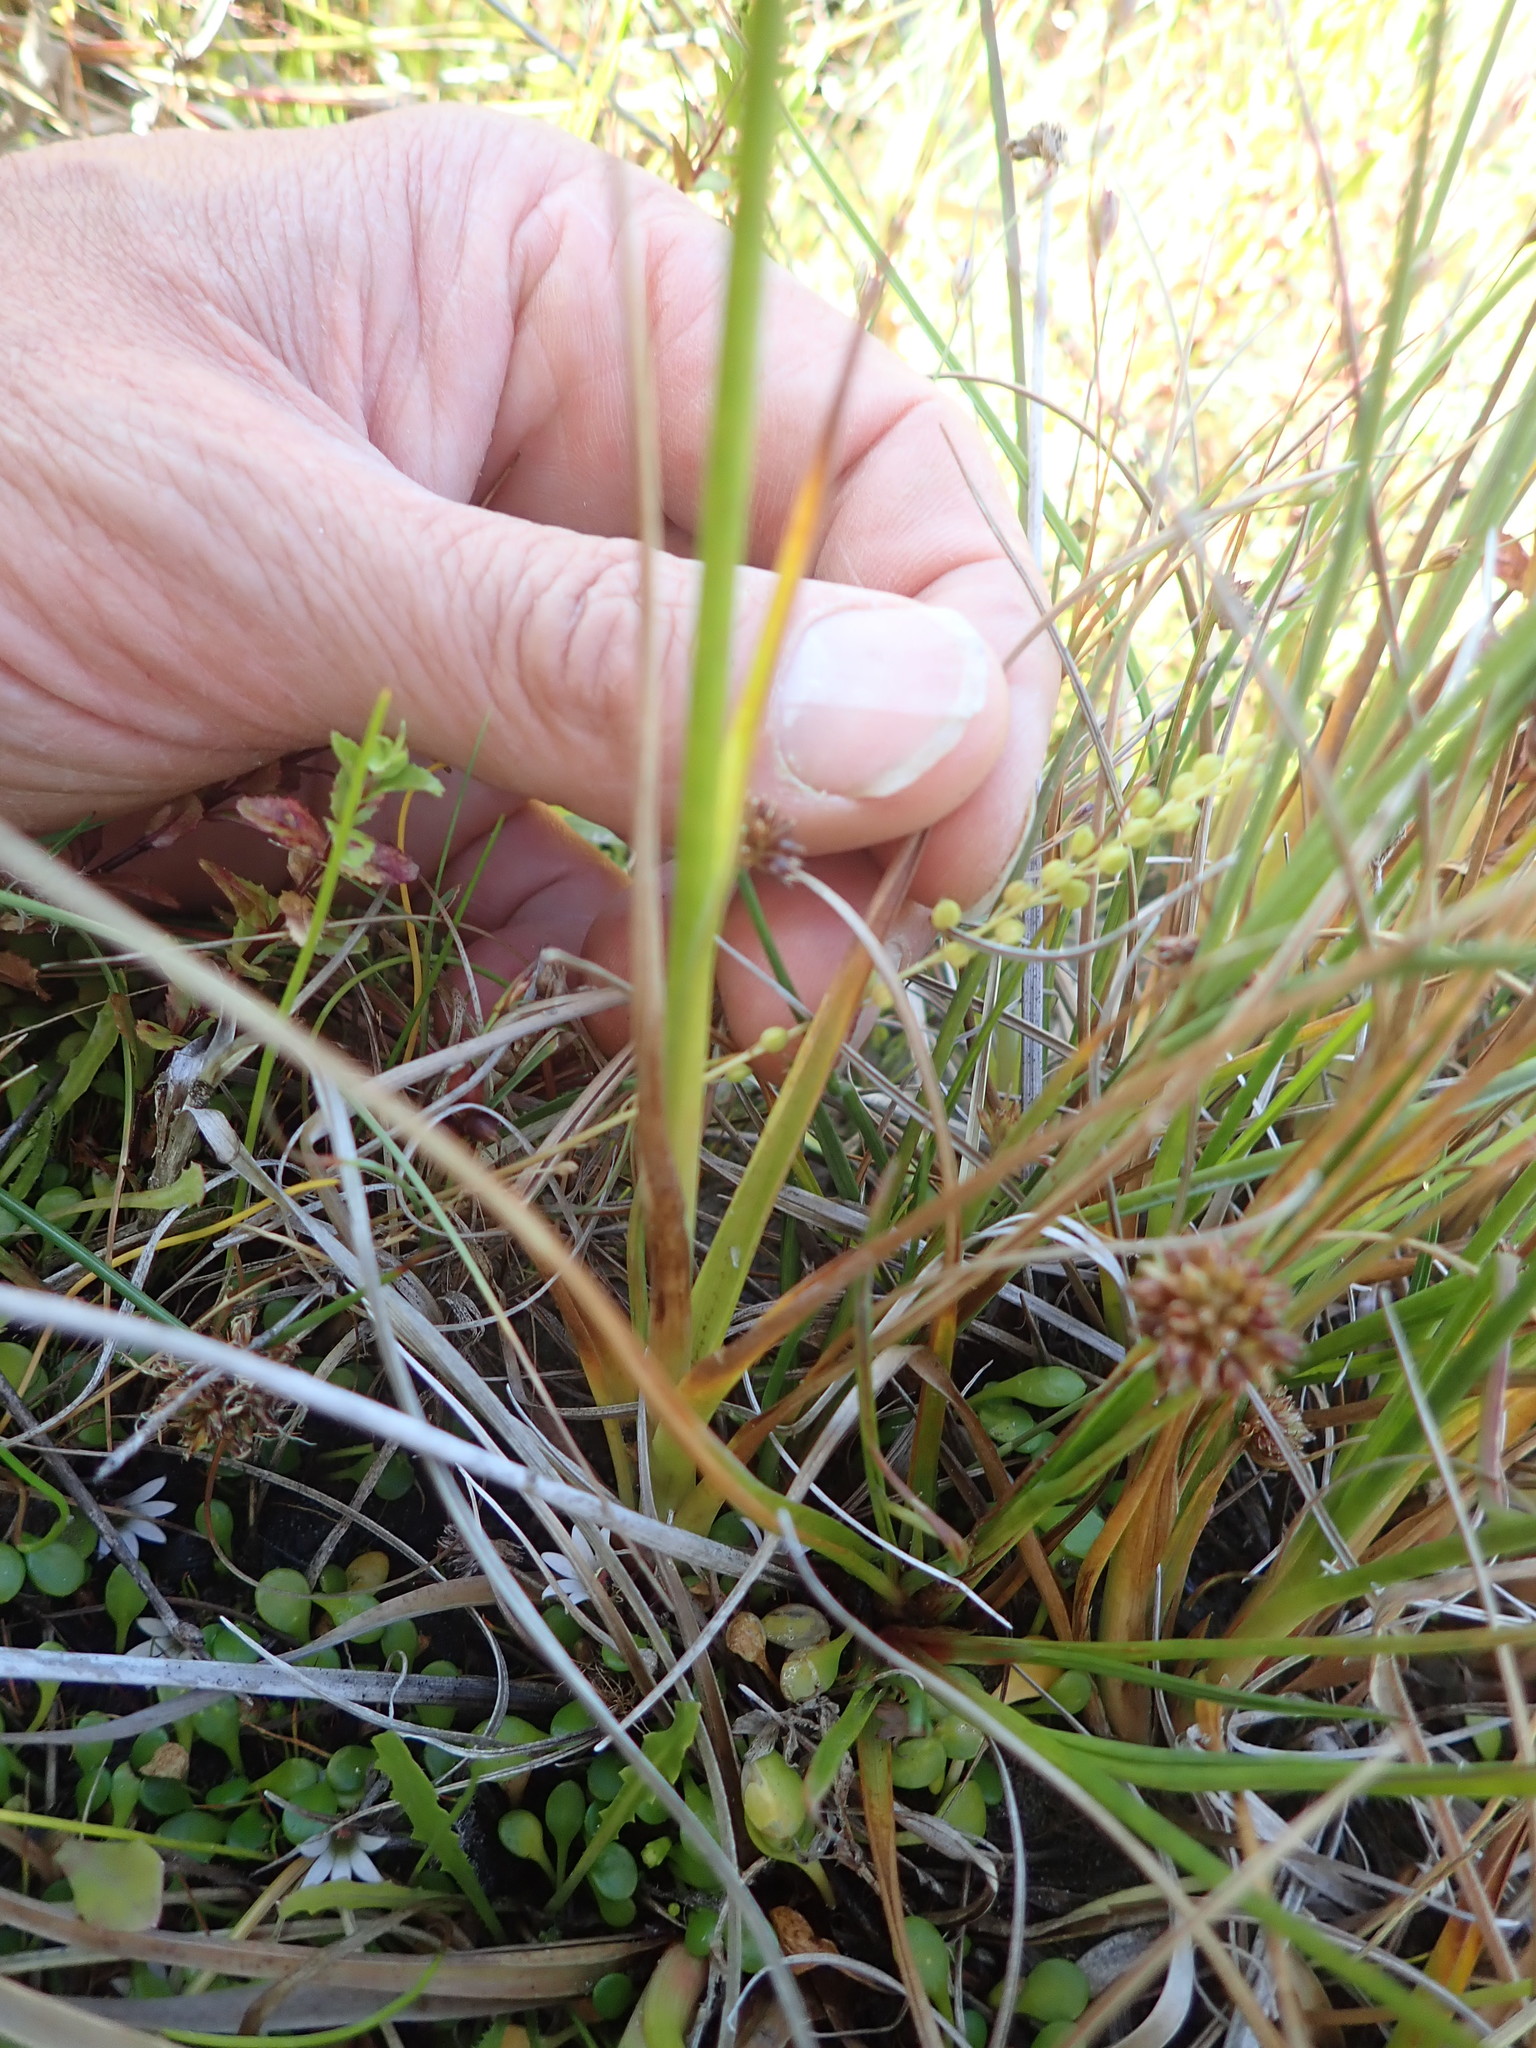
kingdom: Plantae
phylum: Tracheophyta
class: Liliopsida
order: Poales
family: Juncaceae
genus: Juncus
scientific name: Juncus caespiticius
